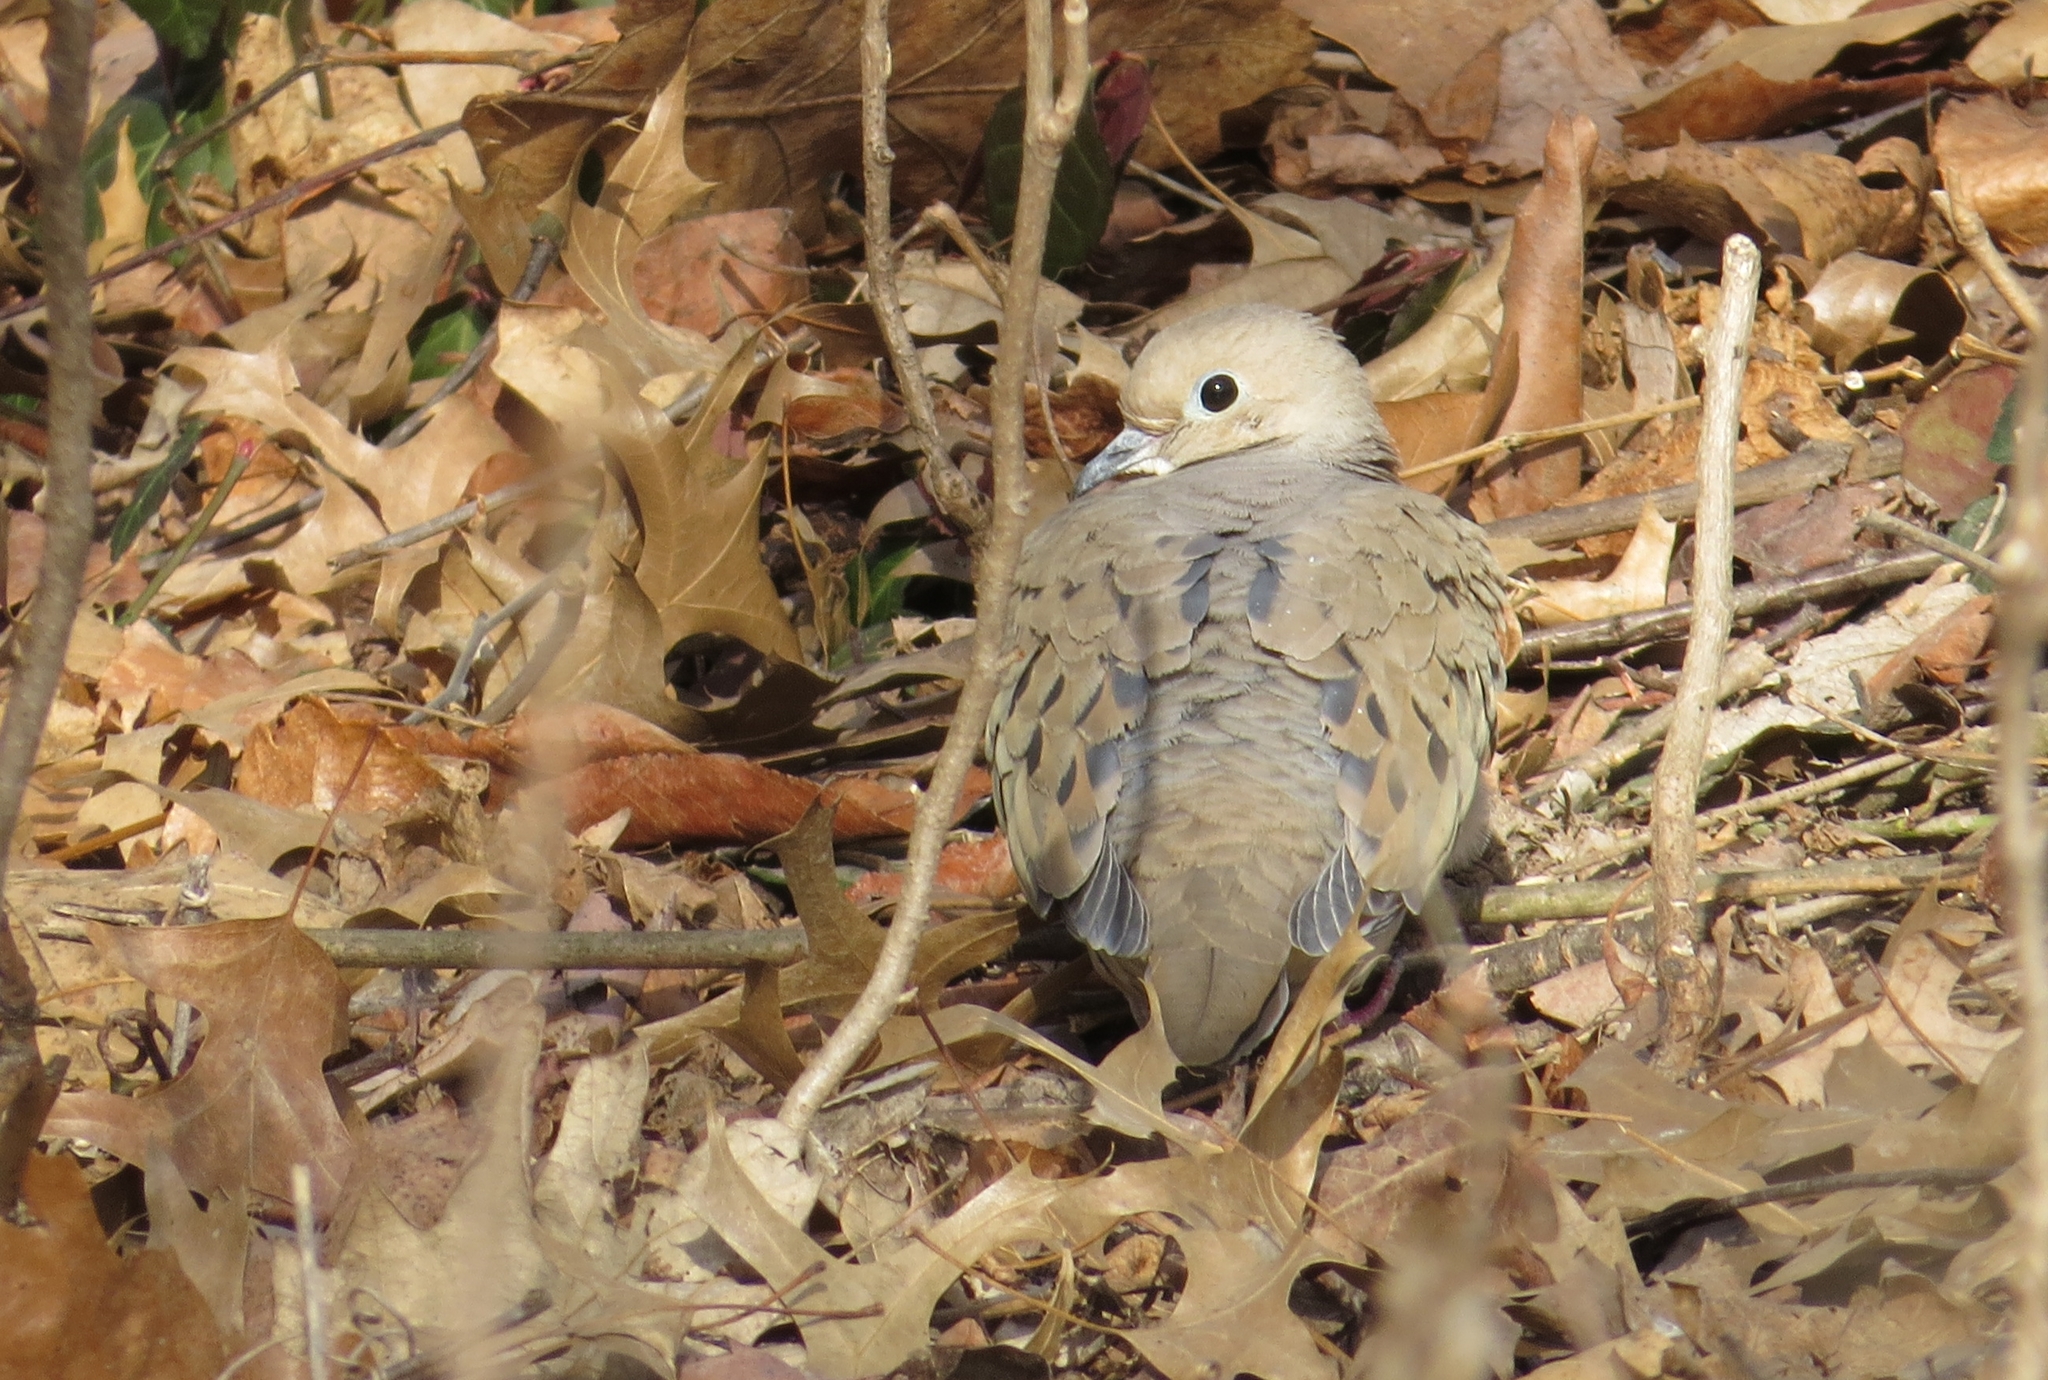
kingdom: Animalia
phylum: Chordata
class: Aves
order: Columbiformes
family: Columbidae
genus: Zenaida
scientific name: Zenaida macroura
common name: Mourning dove
